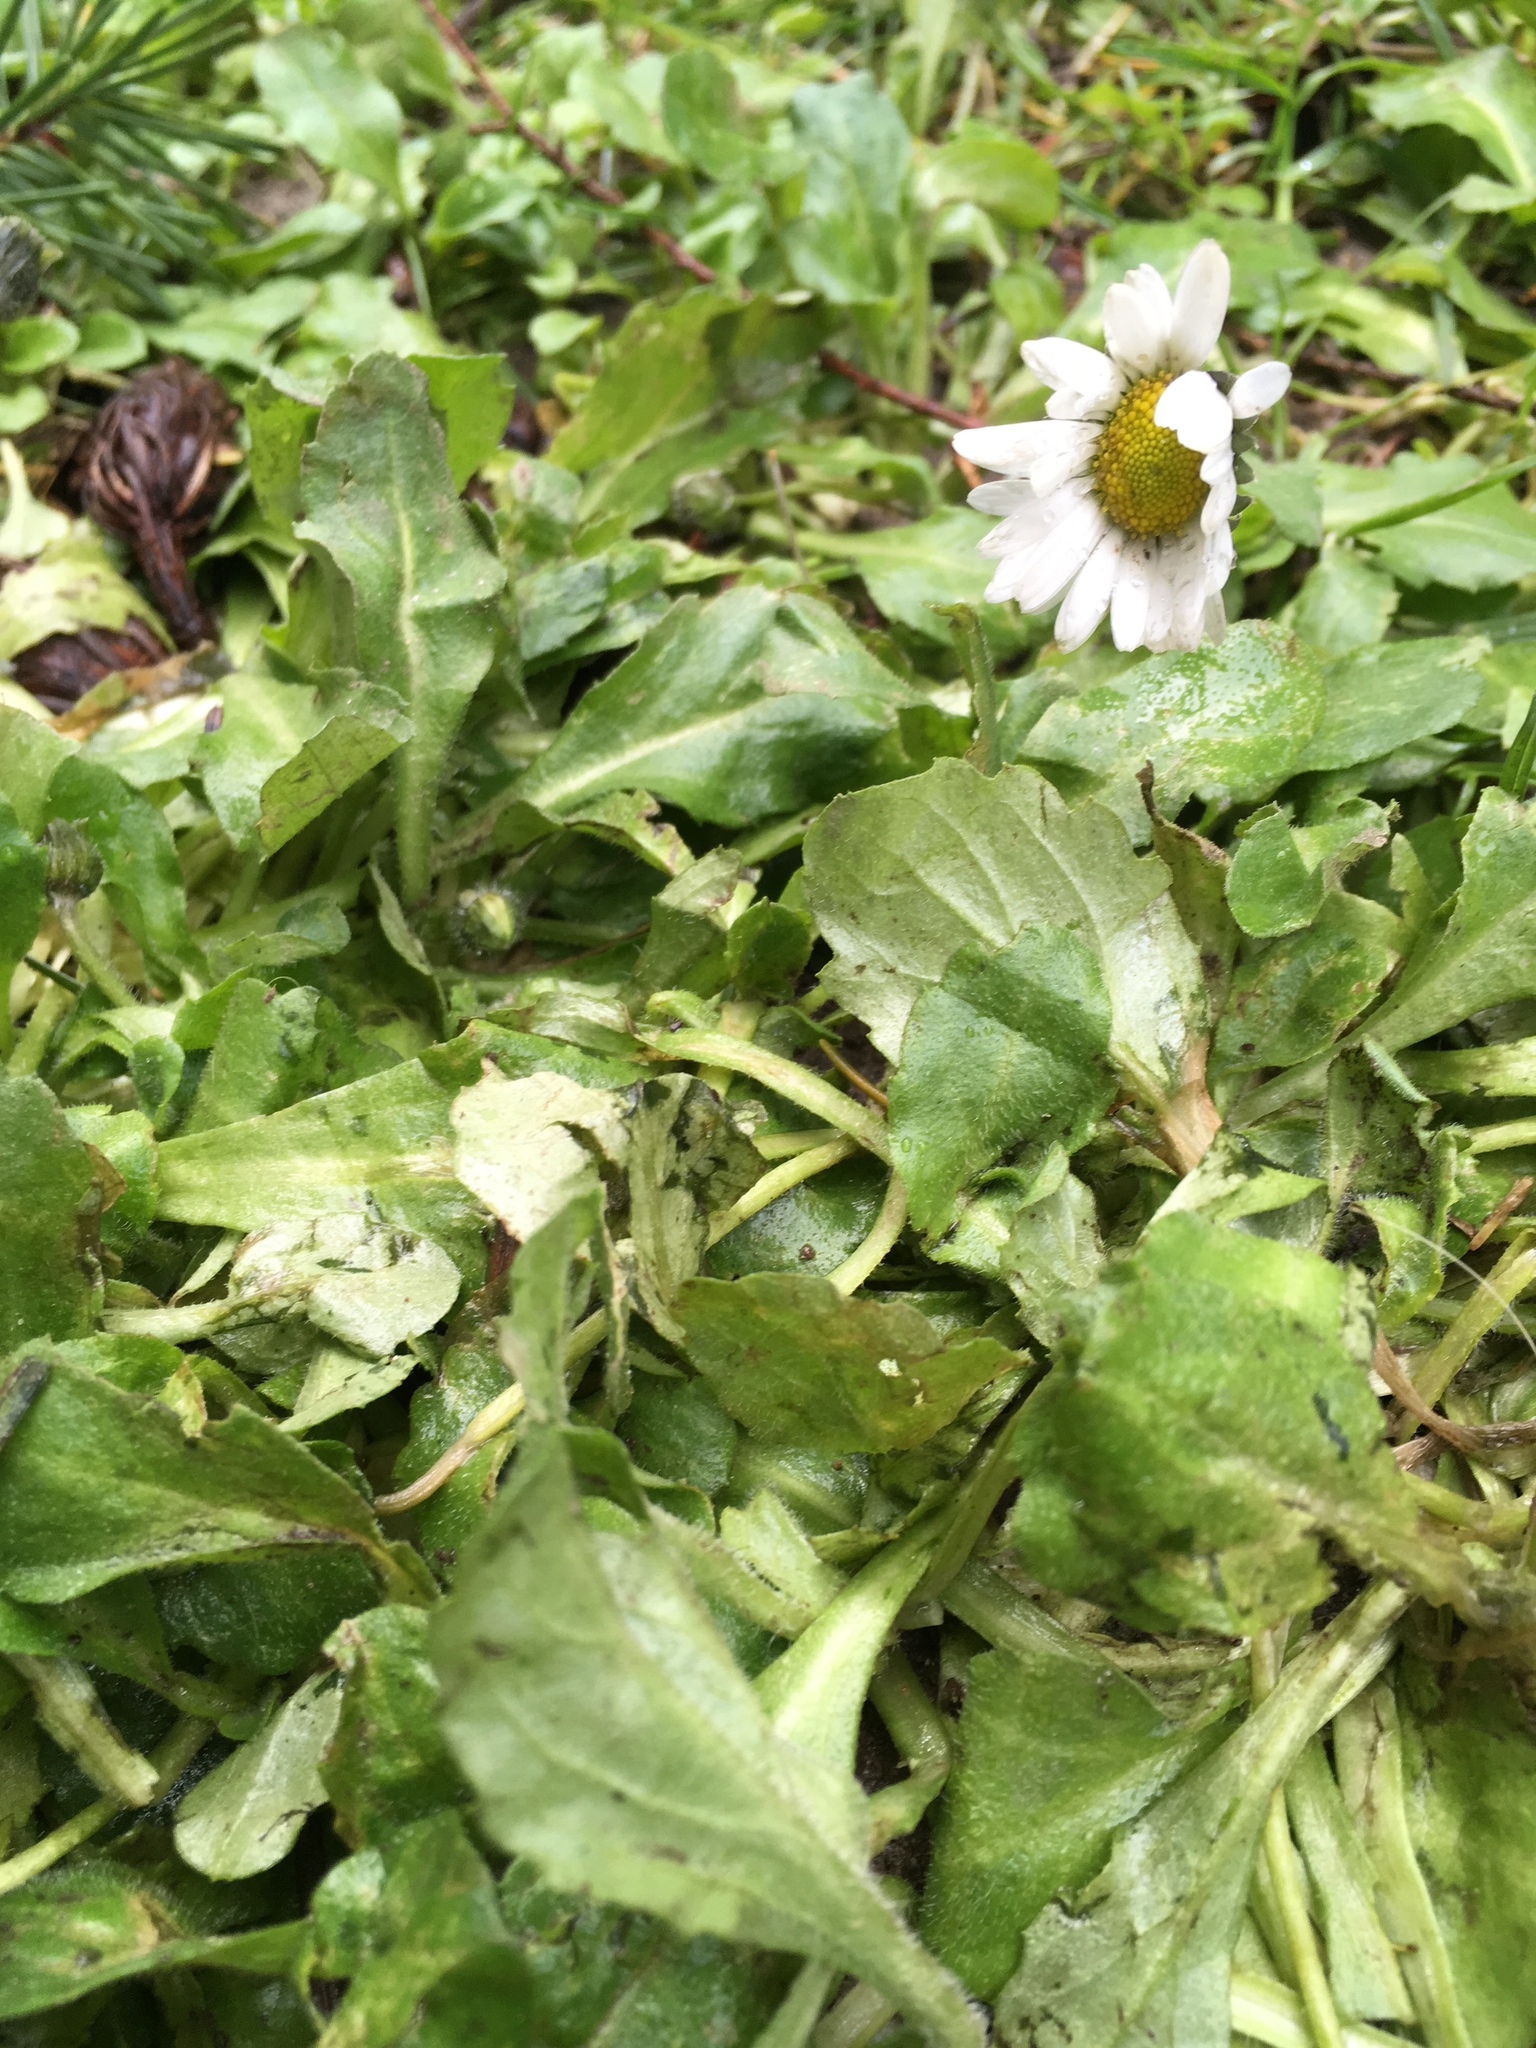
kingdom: Plantae
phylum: Tracheophyta
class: Magnoliopsida
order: Asterales
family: Asteraceae
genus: Bellis
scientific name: Bellis perennis
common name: Lawndaisy
